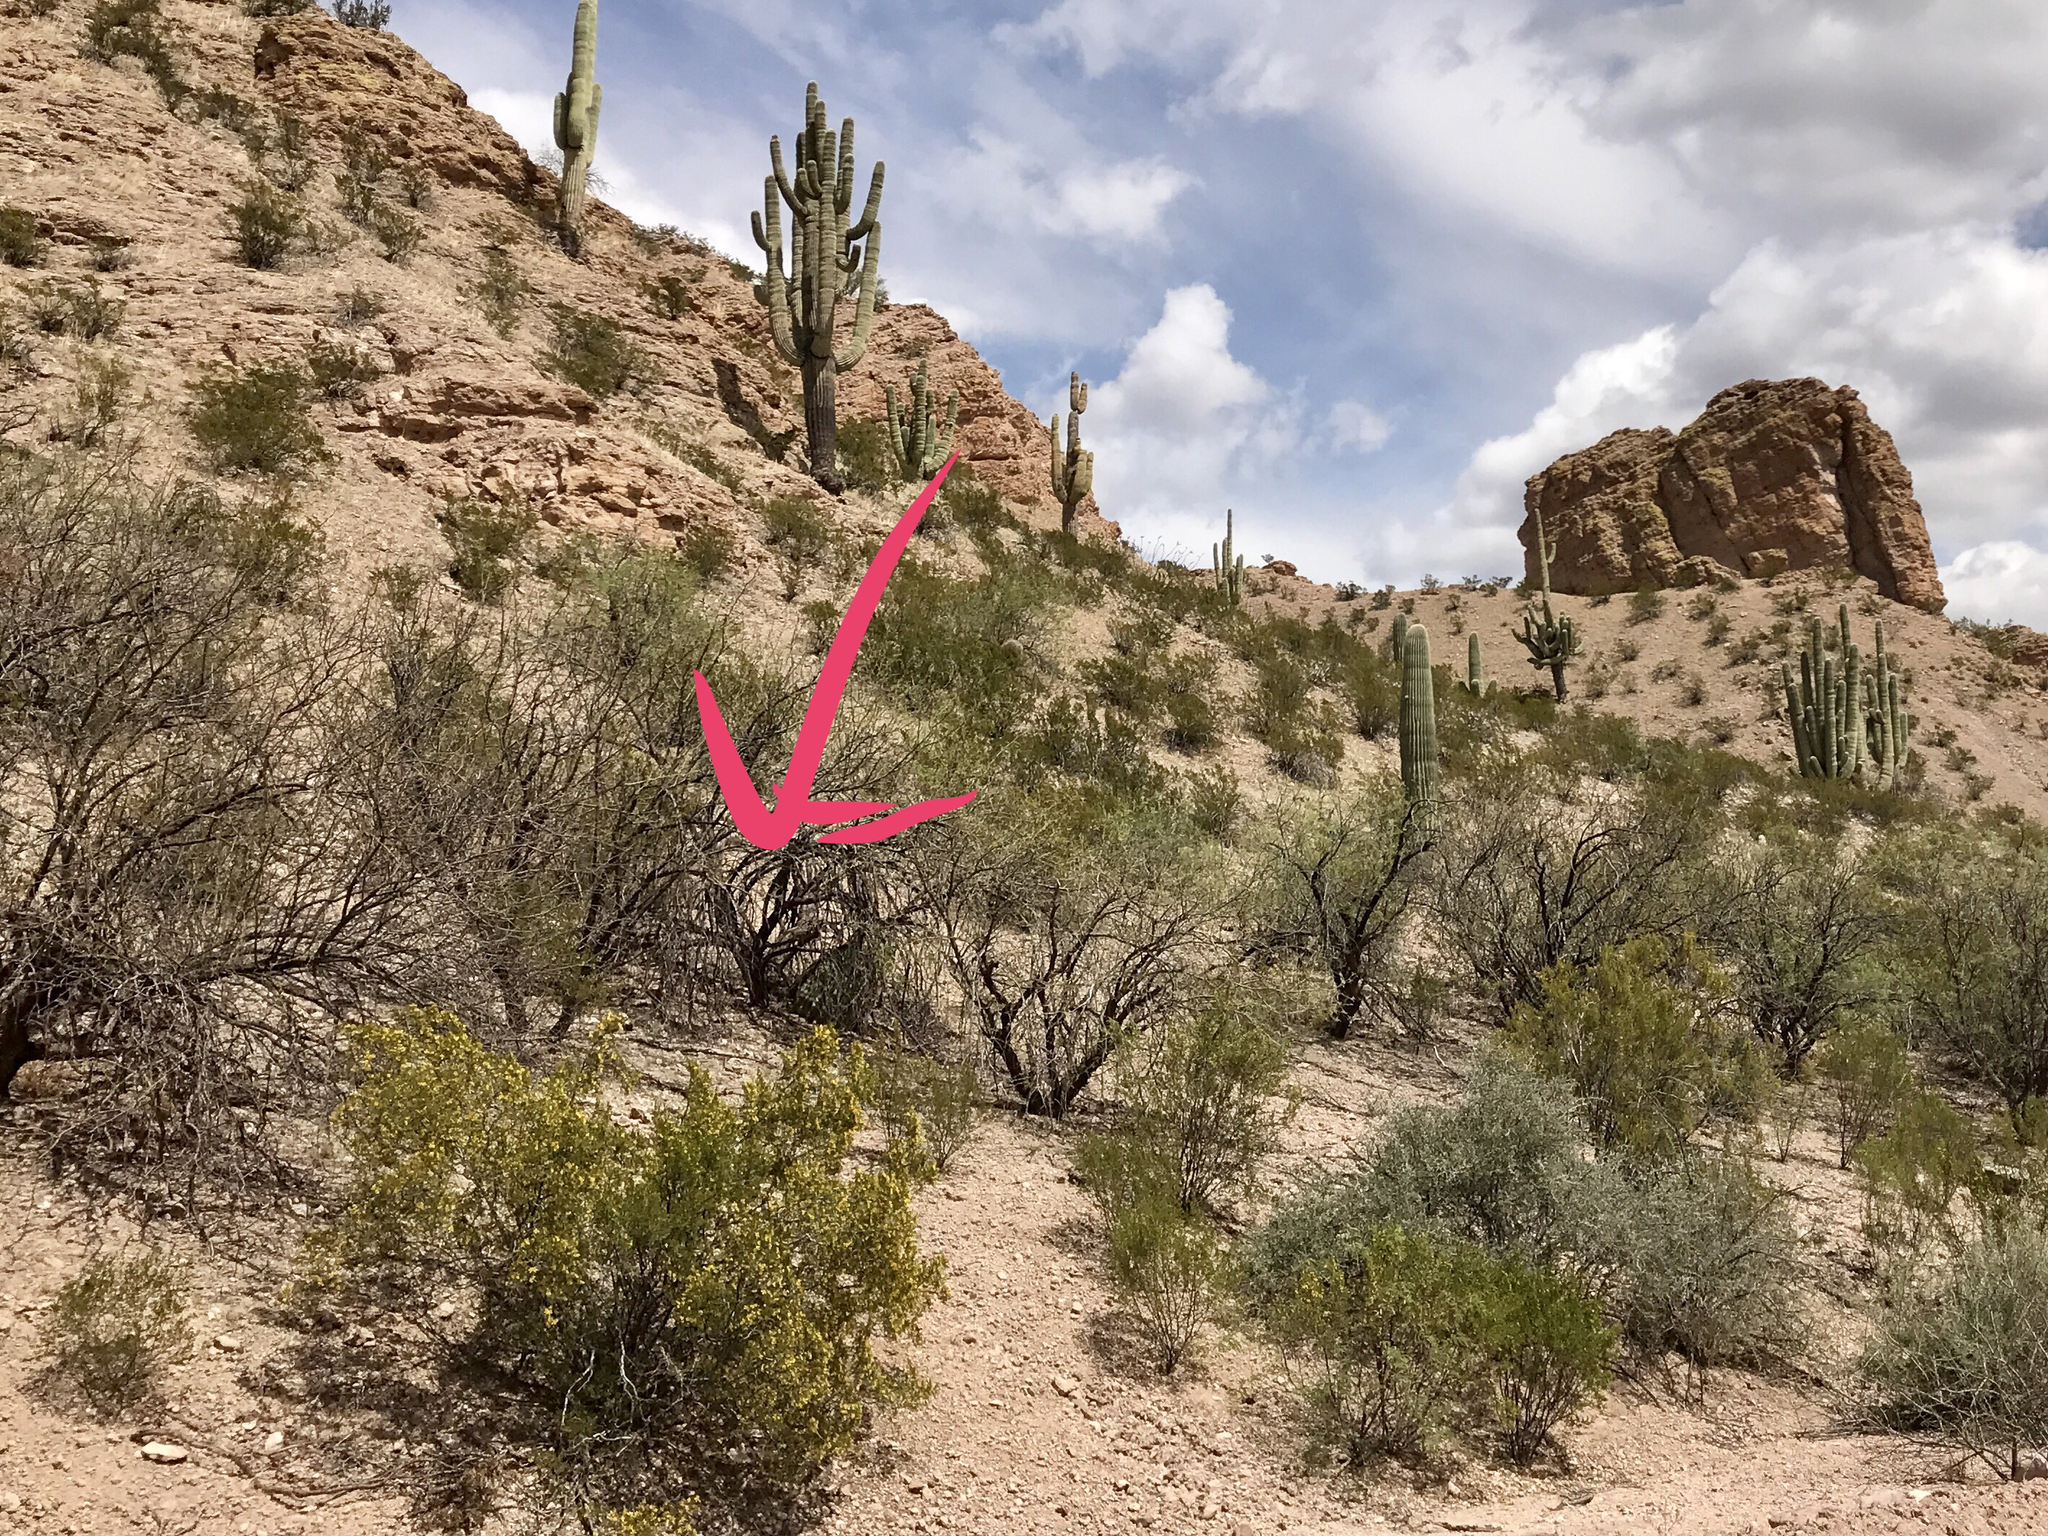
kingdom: Plantae
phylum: Tracheophyta
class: Magnoliopsida
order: Zygophyllales
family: Zygophyllaceae
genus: Larrea
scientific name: Larrea tridentata
